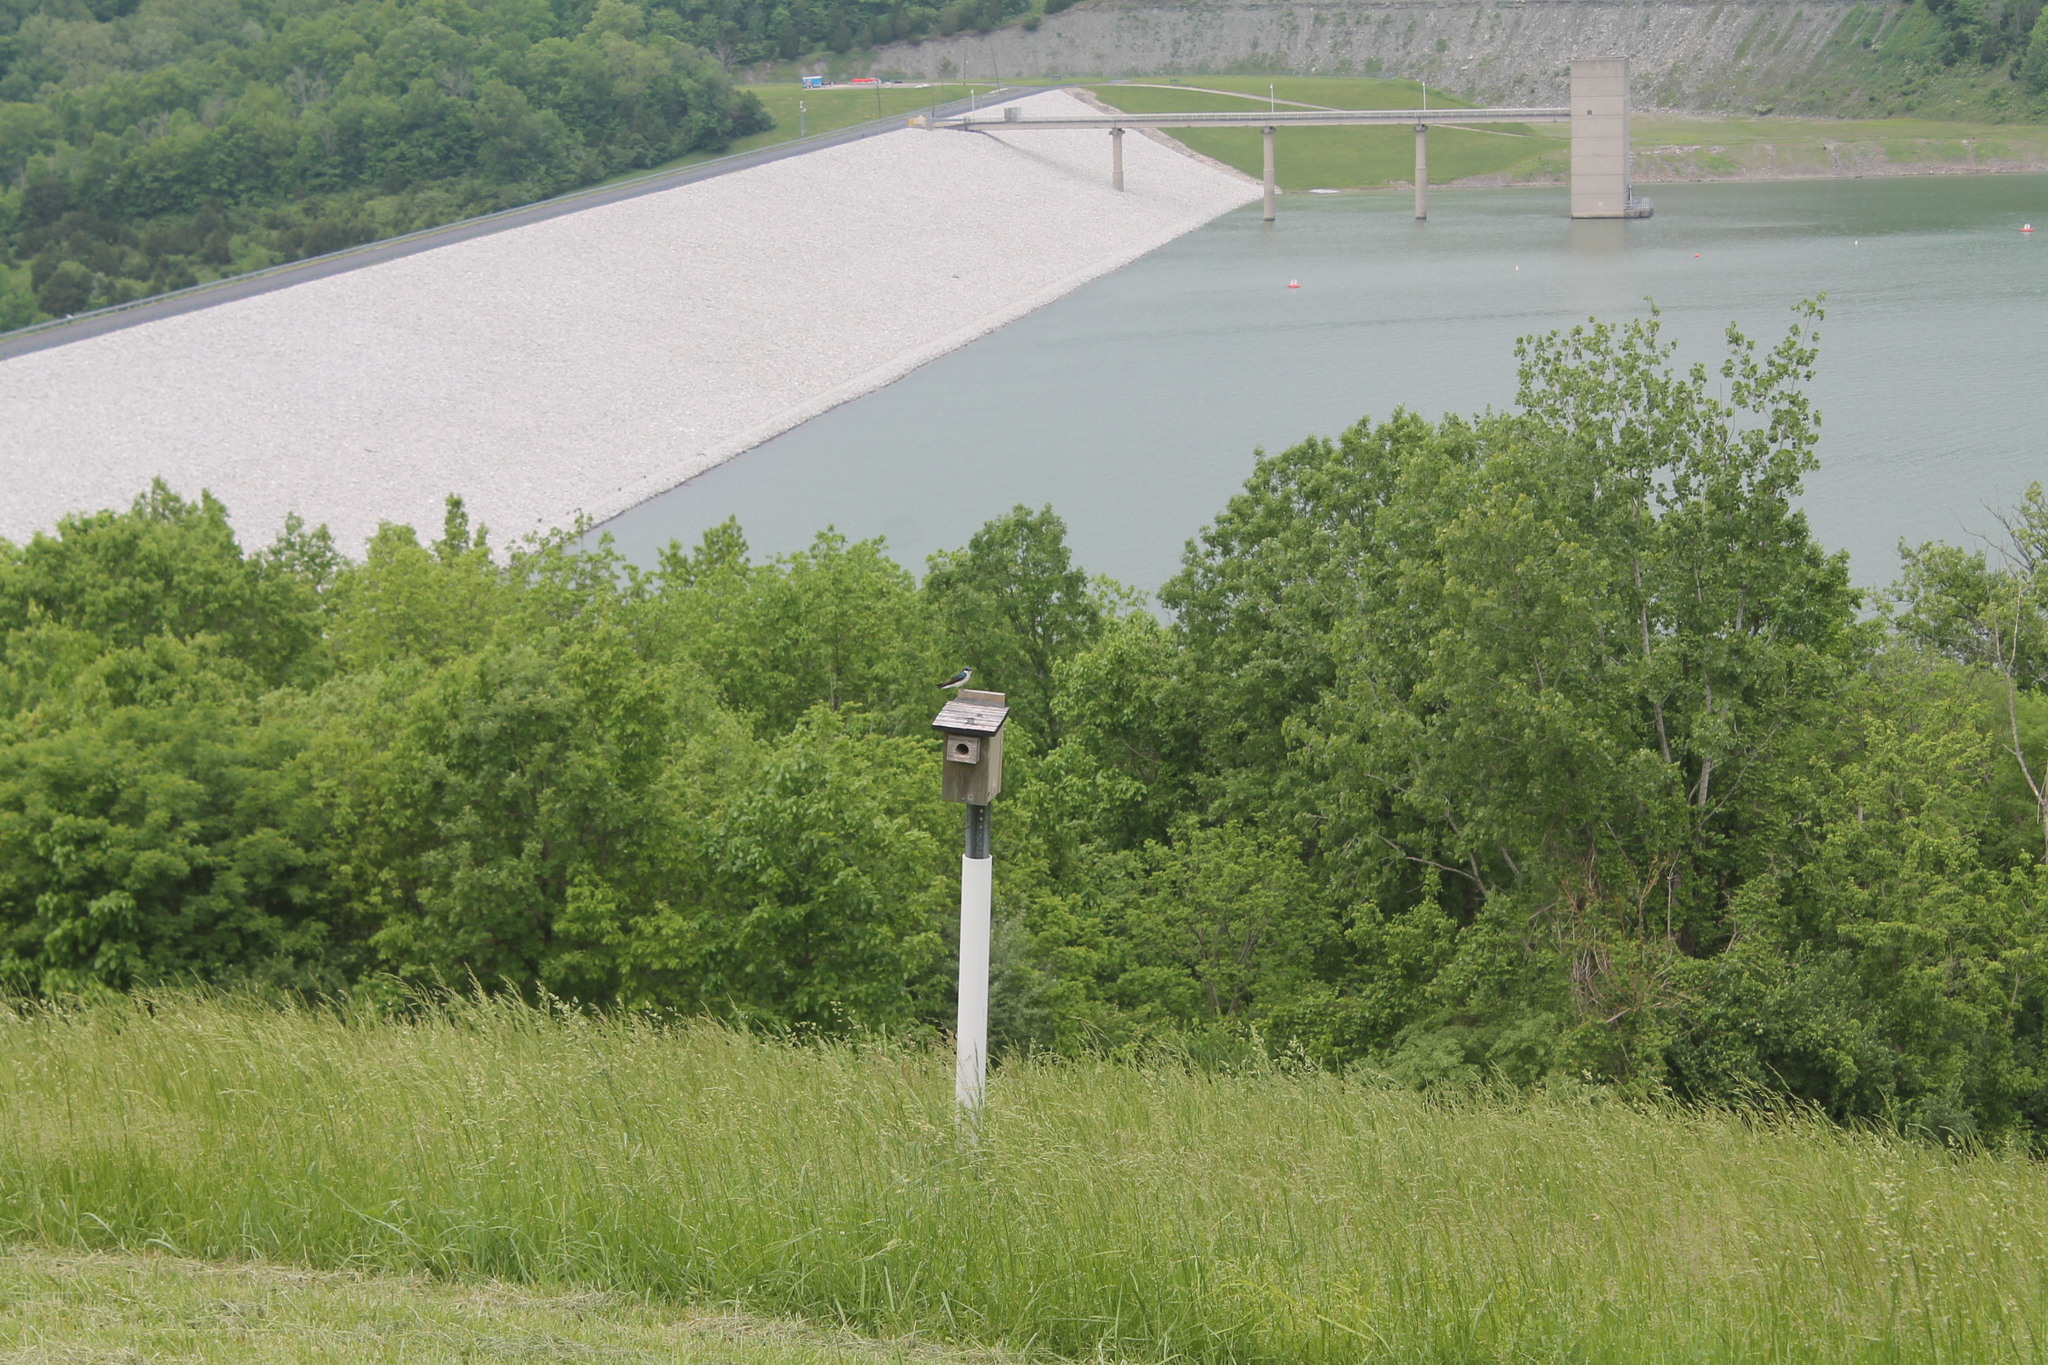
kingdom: Animalia
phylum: Chordata
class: Aves
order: Passeriformes
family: Hirundinidae
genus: Tachycineta
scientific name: Tachycineta bicolor
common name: Tree swallow
